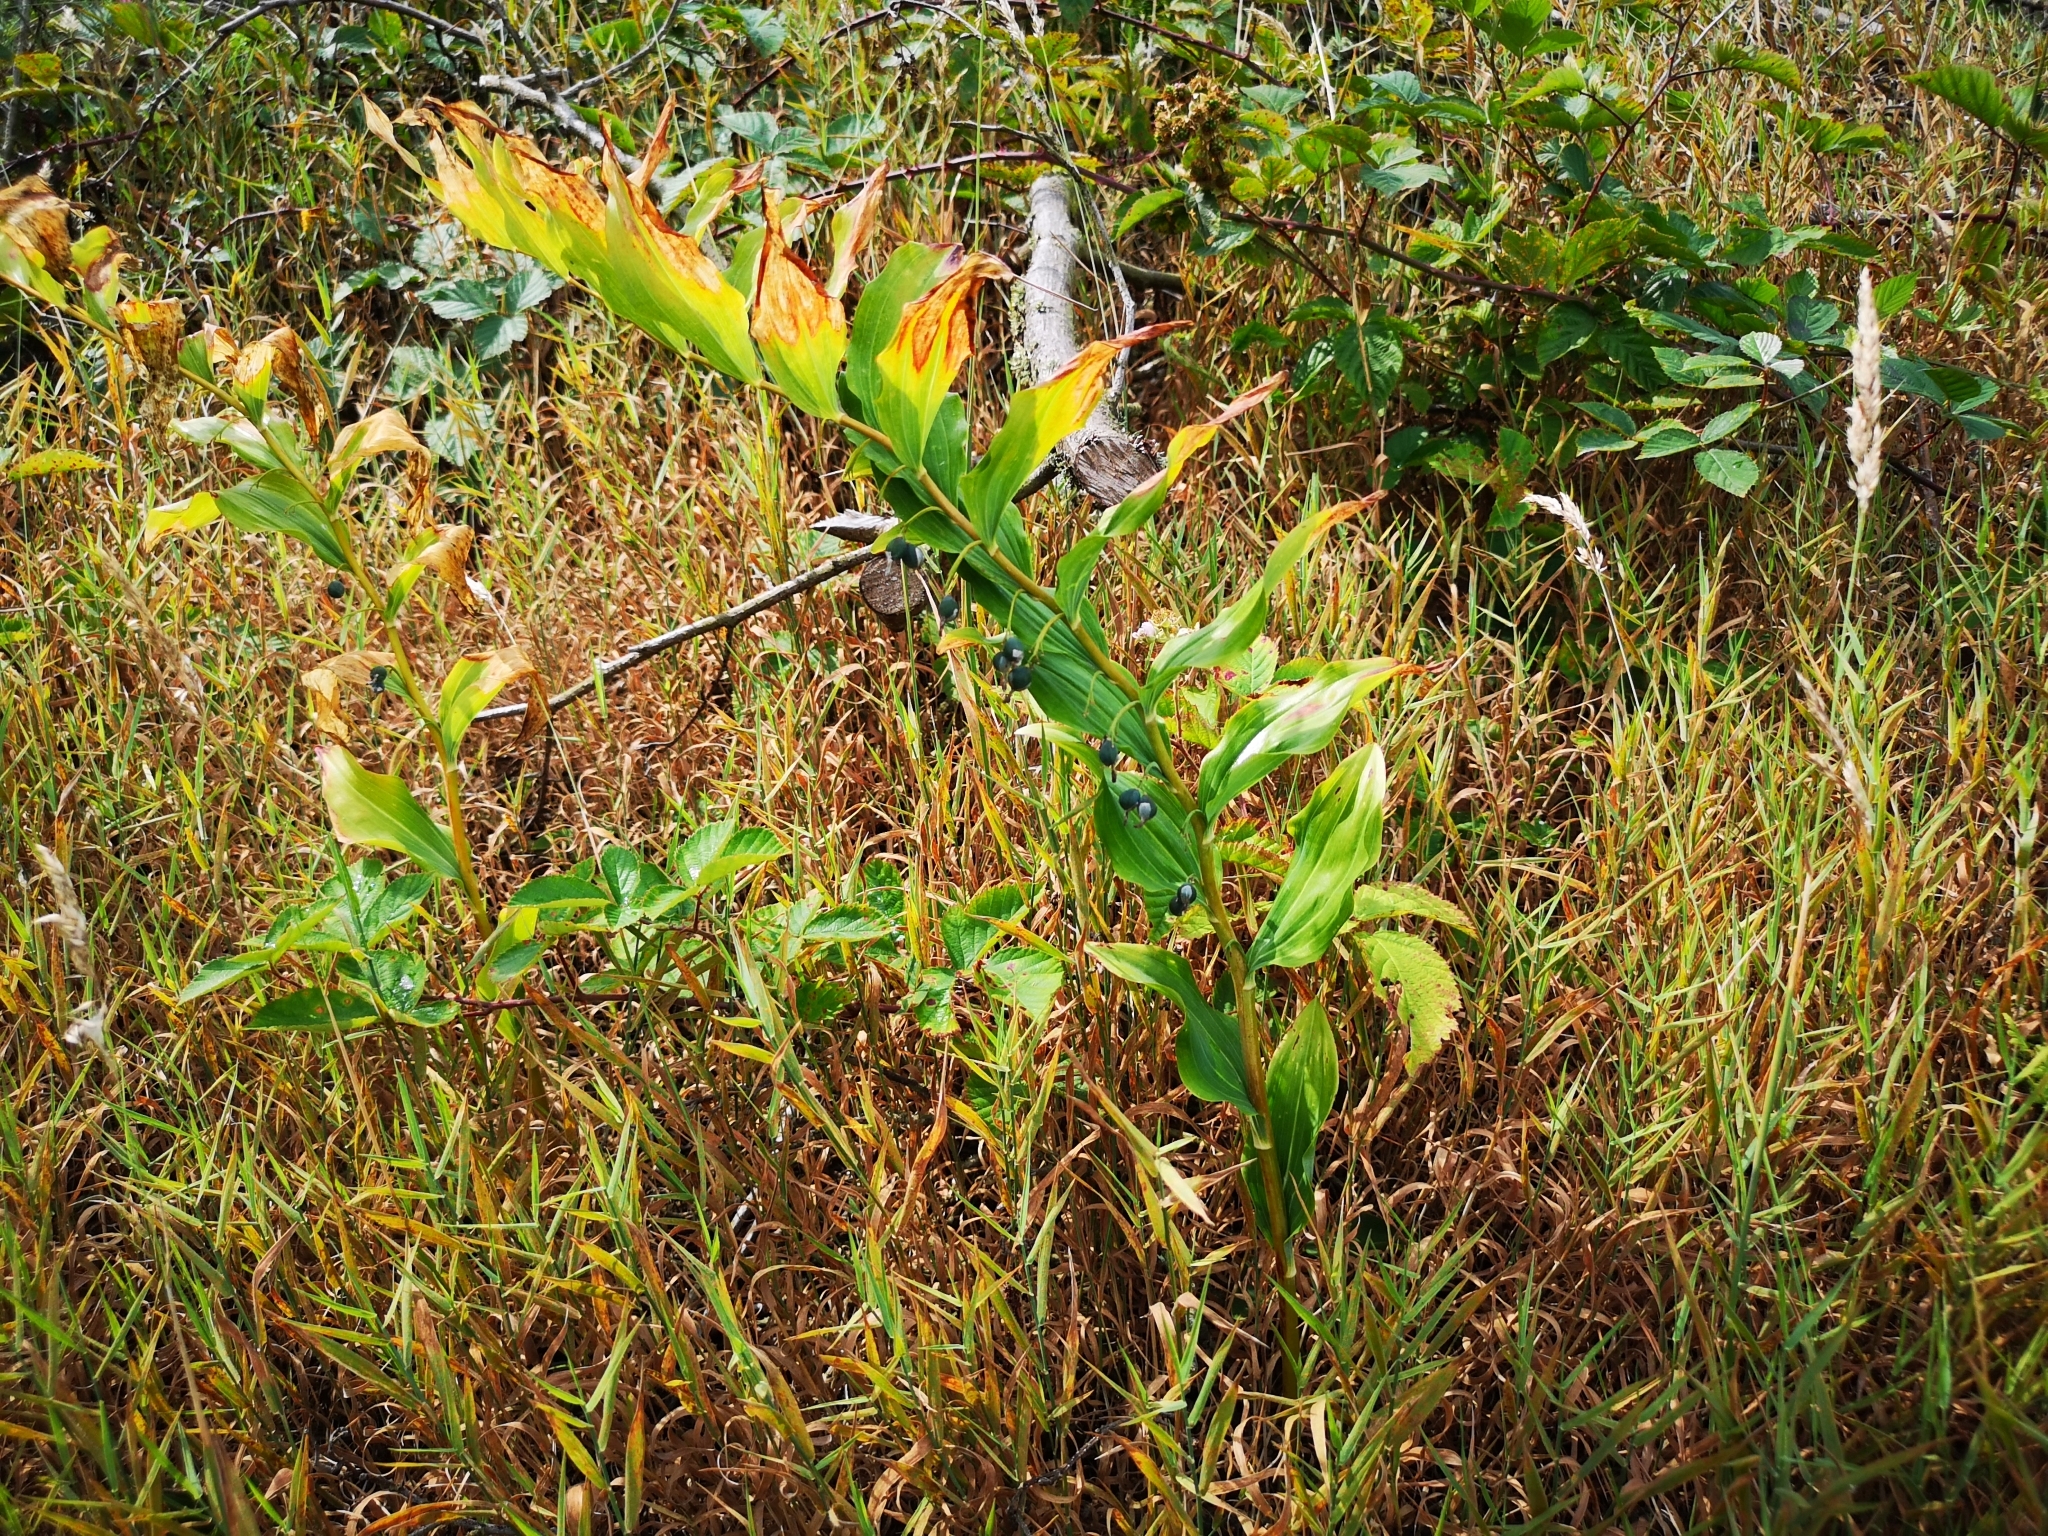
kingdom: Plantae
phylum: Tracheophyta
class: Liliopsida
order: Asparagales
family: Asparagaceae
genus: Polygonatum
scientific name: Polygonatum multiflorum
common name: Solomon's-seal
